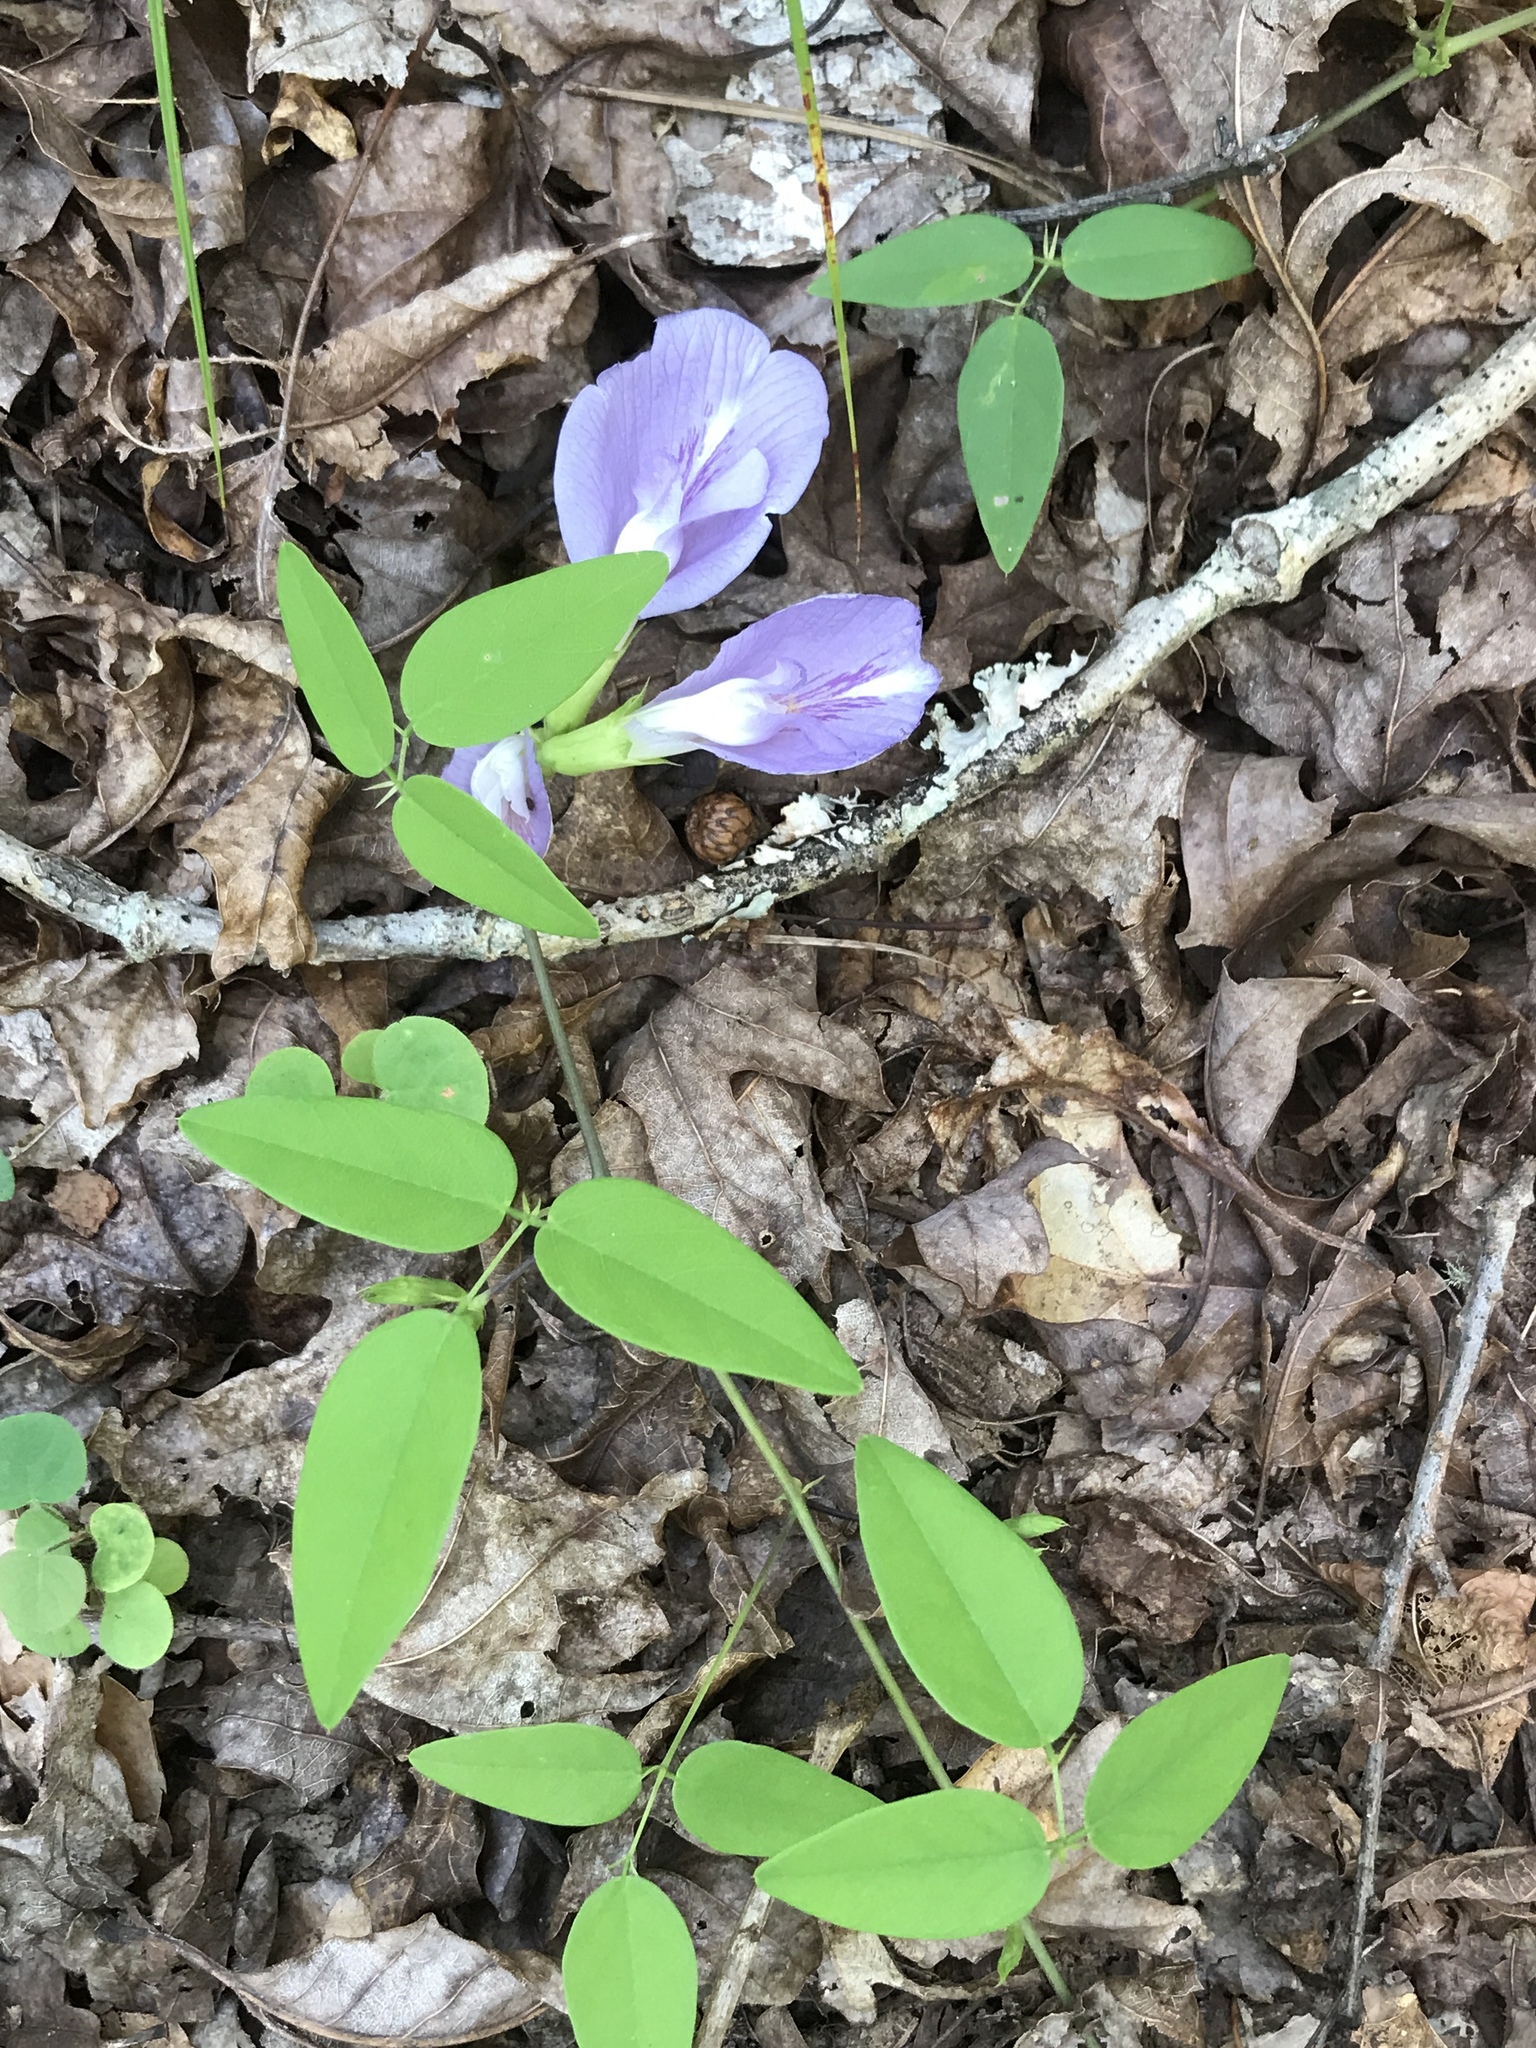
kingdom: Plantae
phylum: Tracheophyta
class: Magnoliopsida
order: Fabales
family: Fabaceae
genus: Clitoria
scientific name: Clitoria mariana
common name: Butterfly-pea
